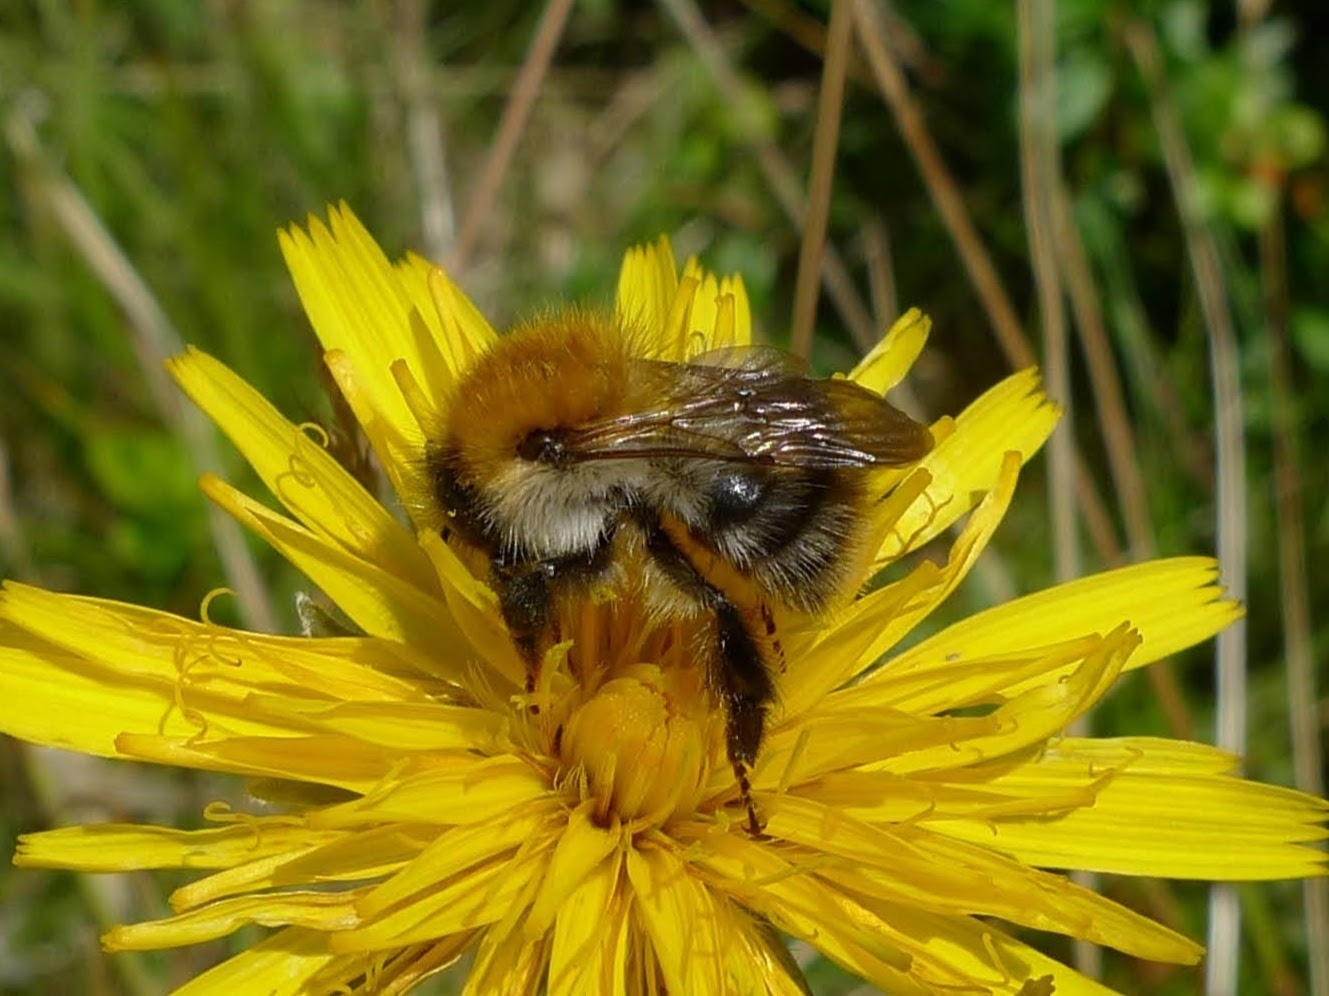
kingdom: Animalia
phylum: Arthropoda
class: Insecta
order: Hymenoptera
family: Apidae
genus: Bombus
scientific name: Bombus pascuorum
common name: Common carder bee
